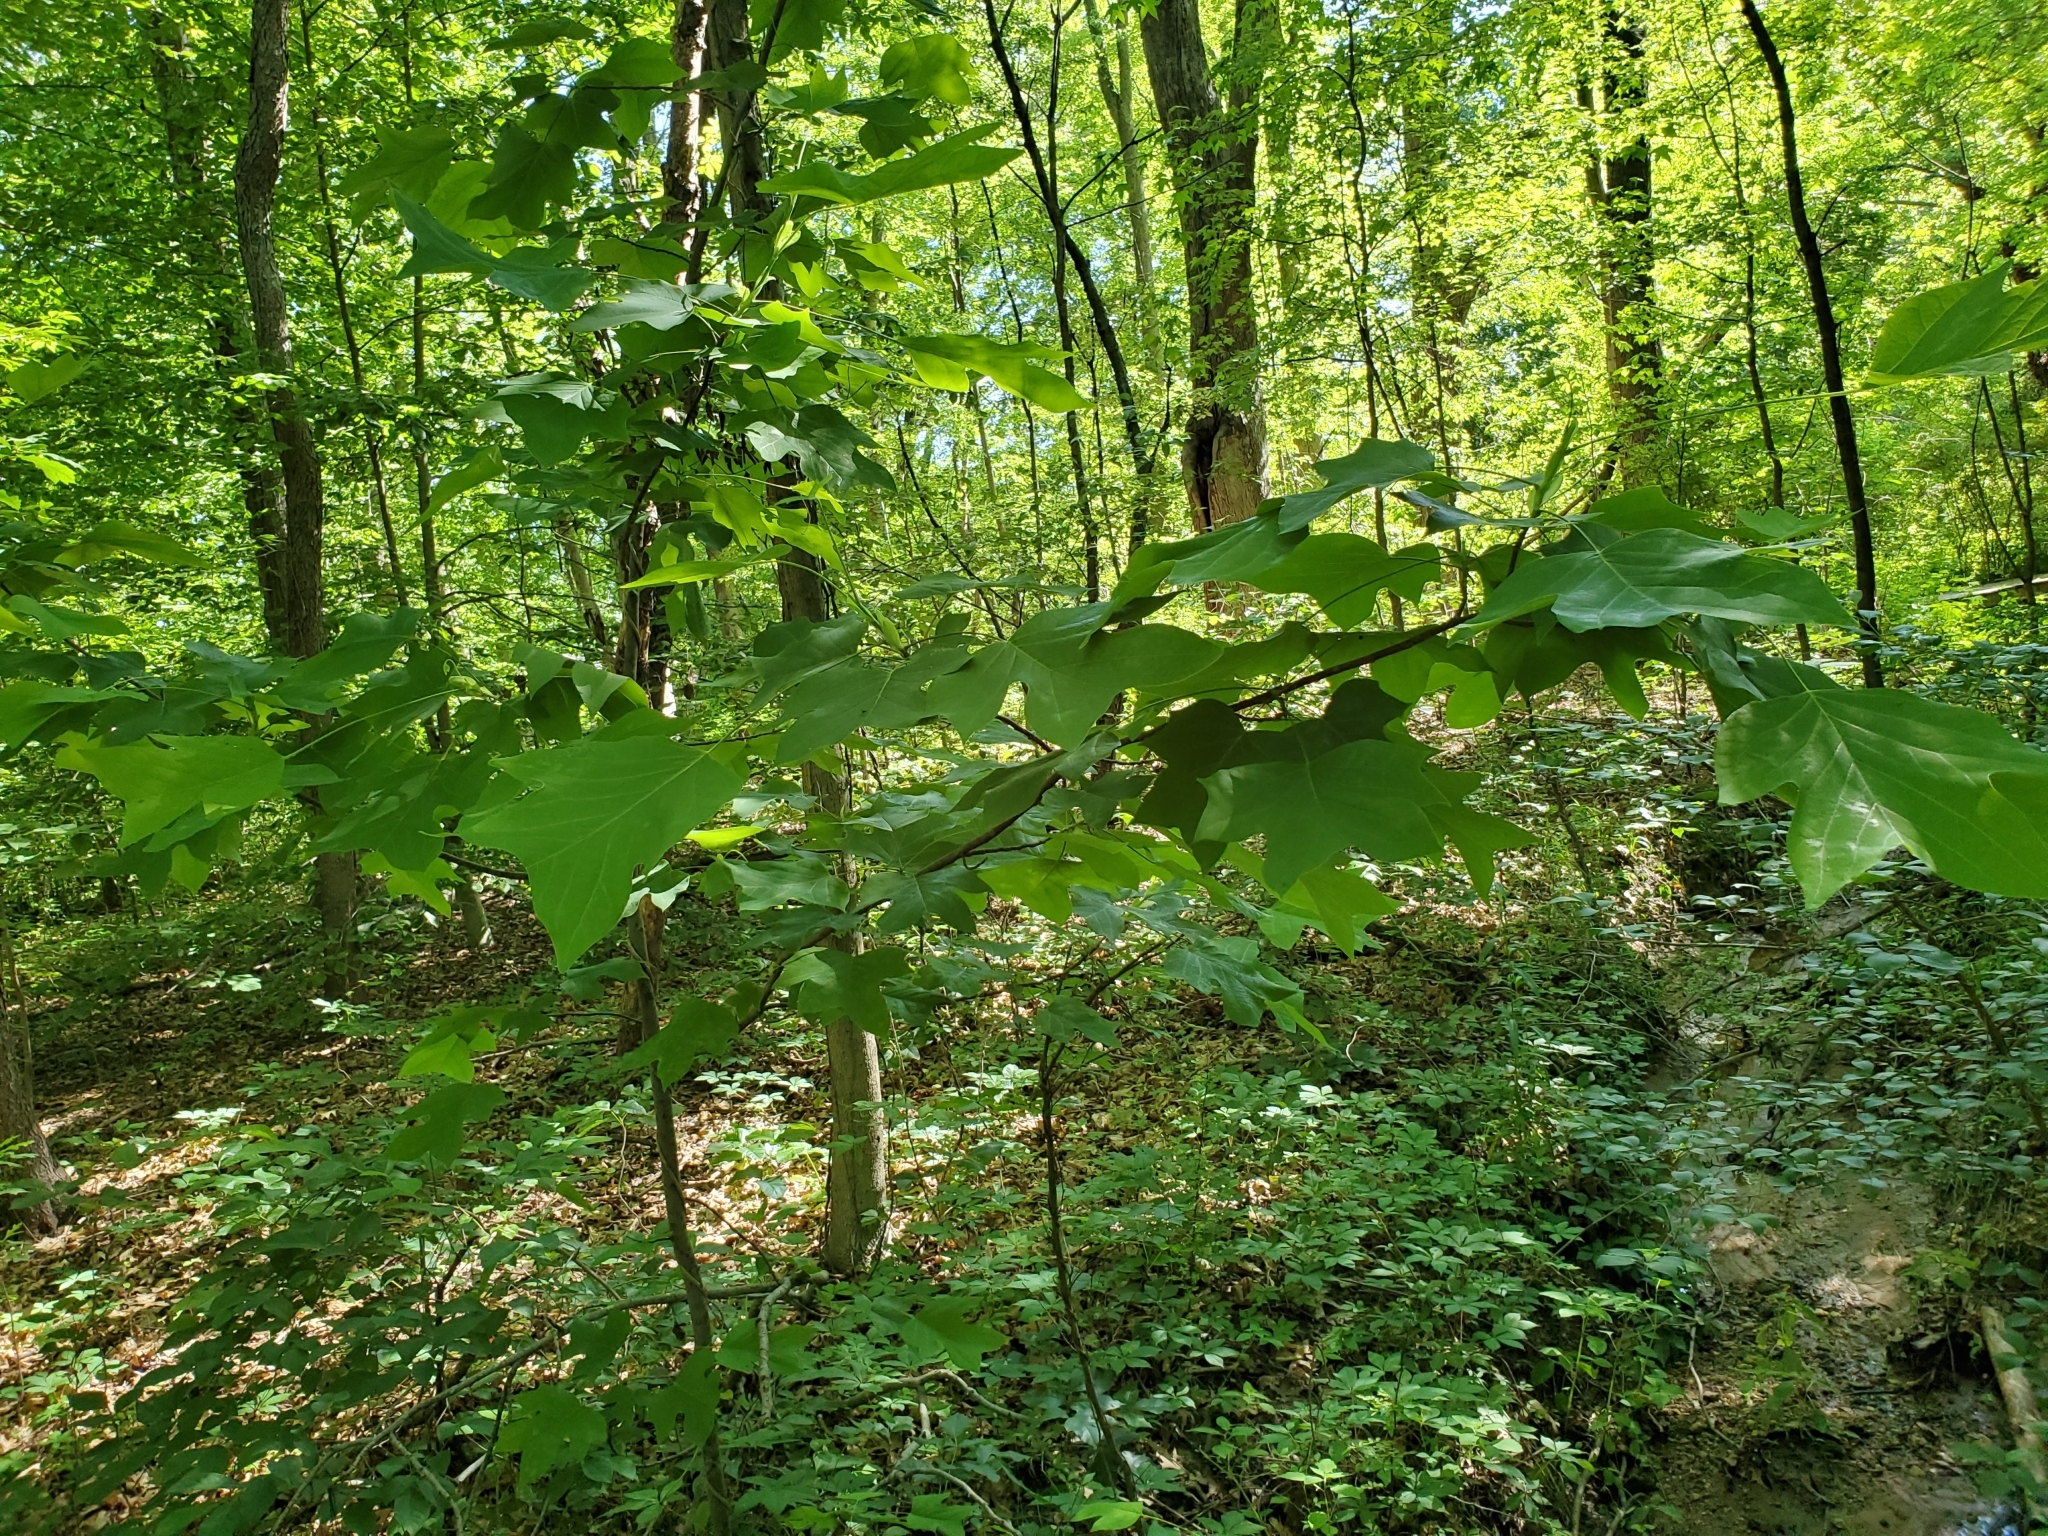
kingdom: Plantae
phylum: Tracheophyta
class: Magnoliopsida
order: Magnoliales
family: Magnoliaceae
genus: Liriodendron
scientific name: Liriodendron tulipifera
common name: Tulip tree
